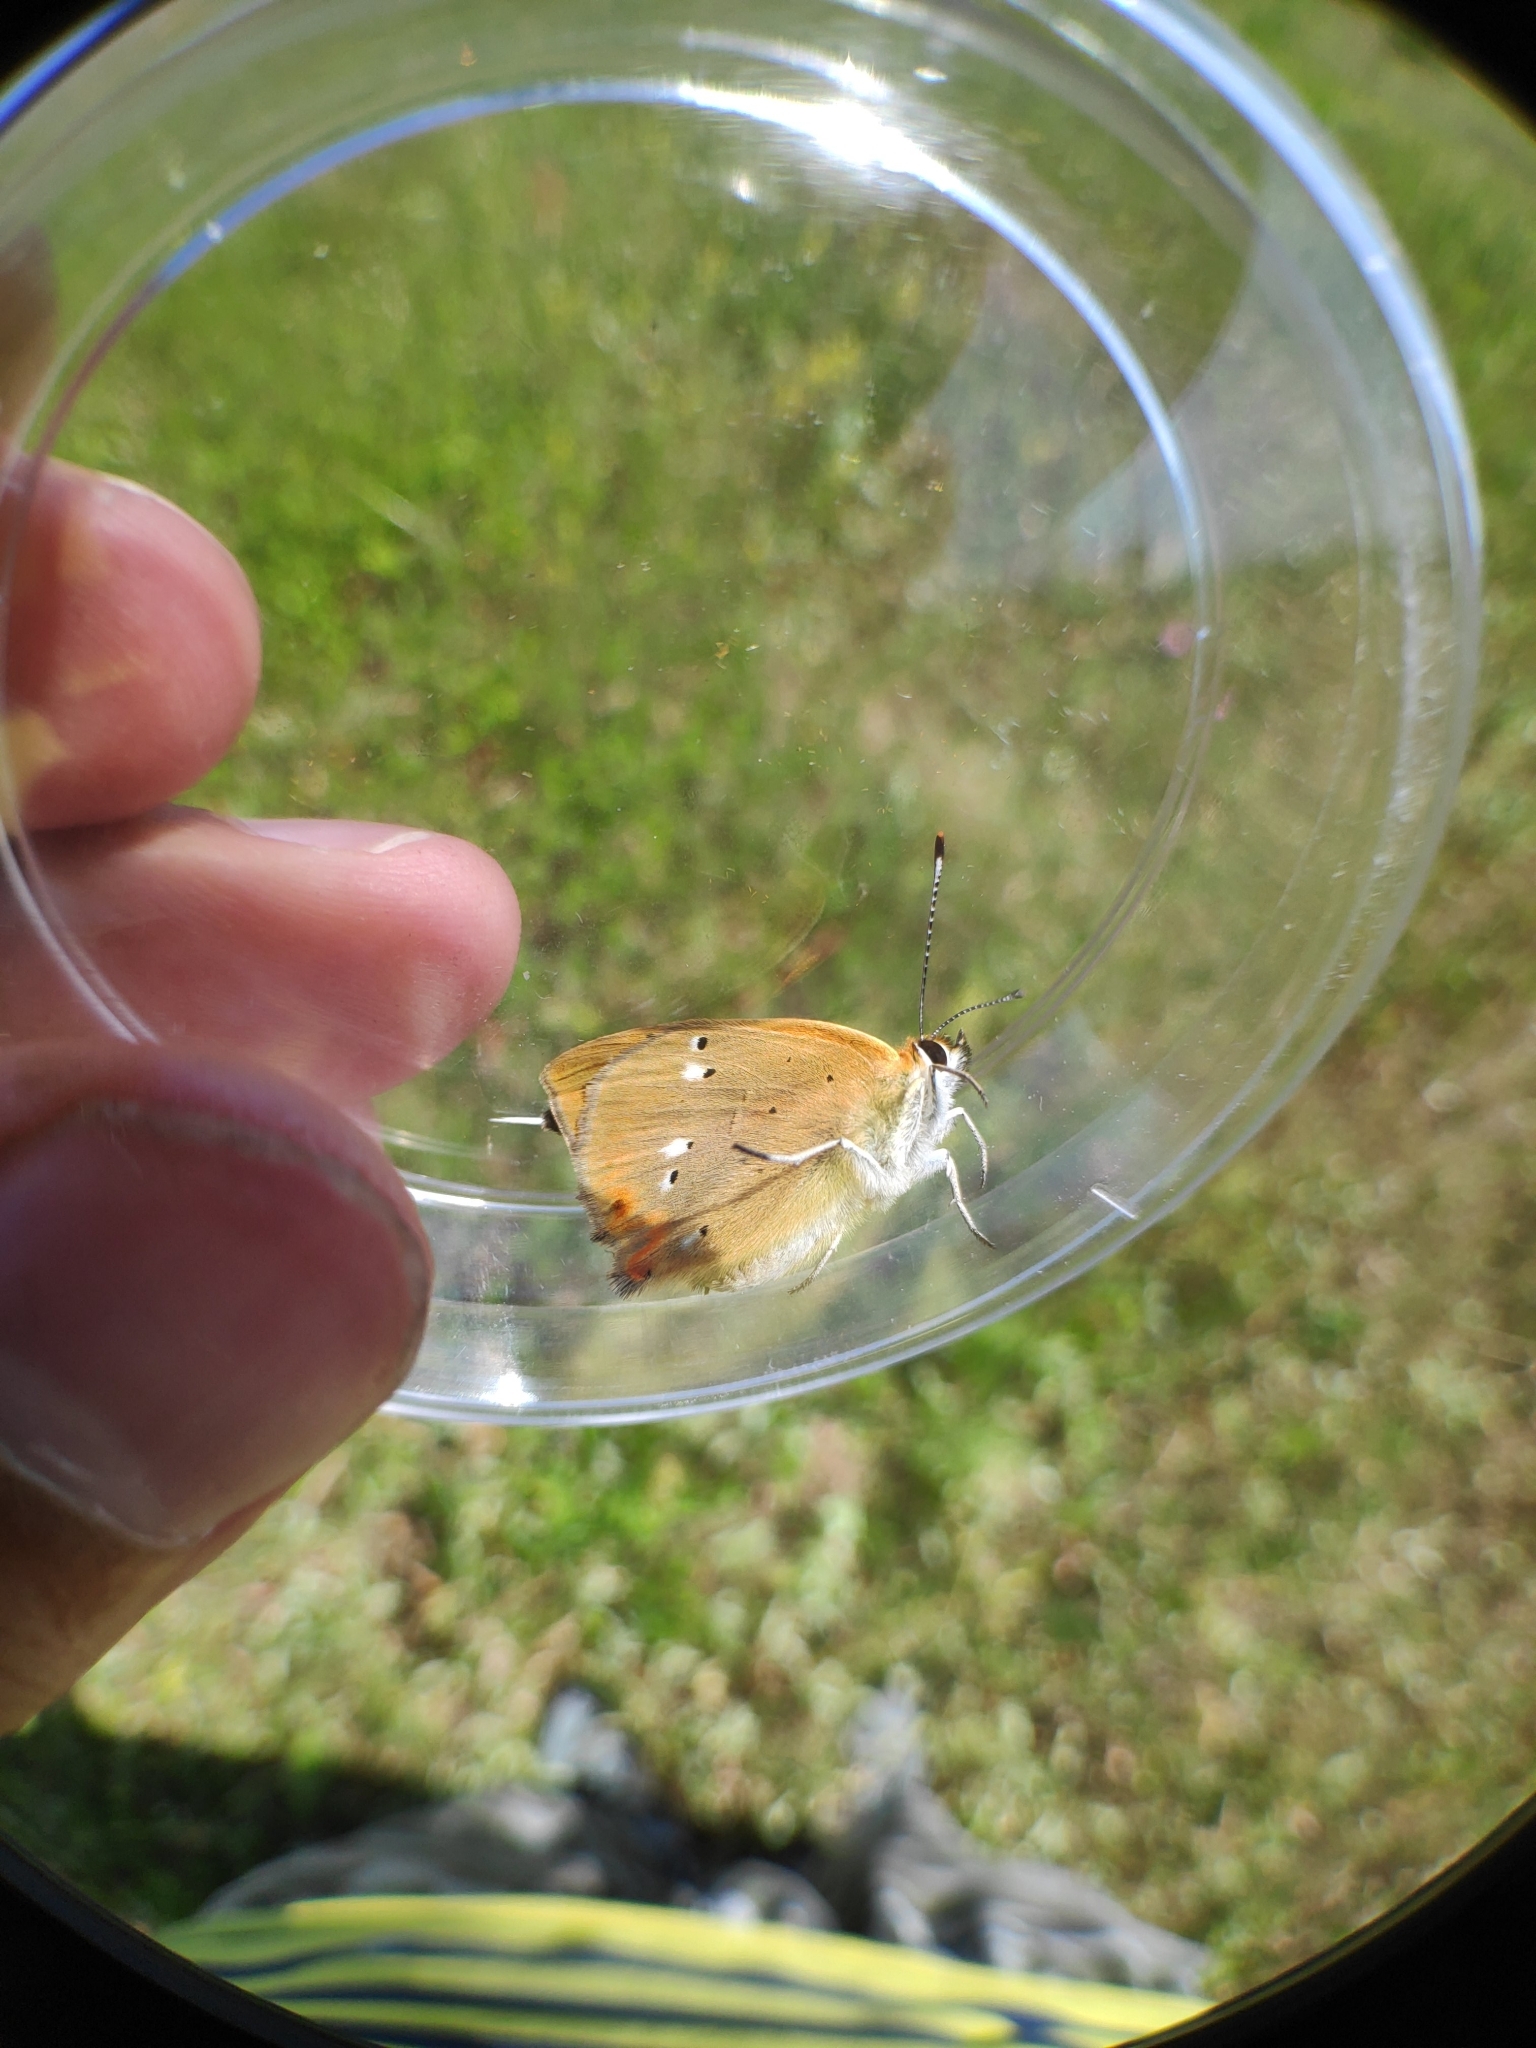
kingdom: Animalia
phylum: Arthropoda
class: Insecta
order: Lepidoptera
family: Lycaenidae
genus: Lycaena
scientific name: Lycaena virgaureae
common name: Scarce copper
